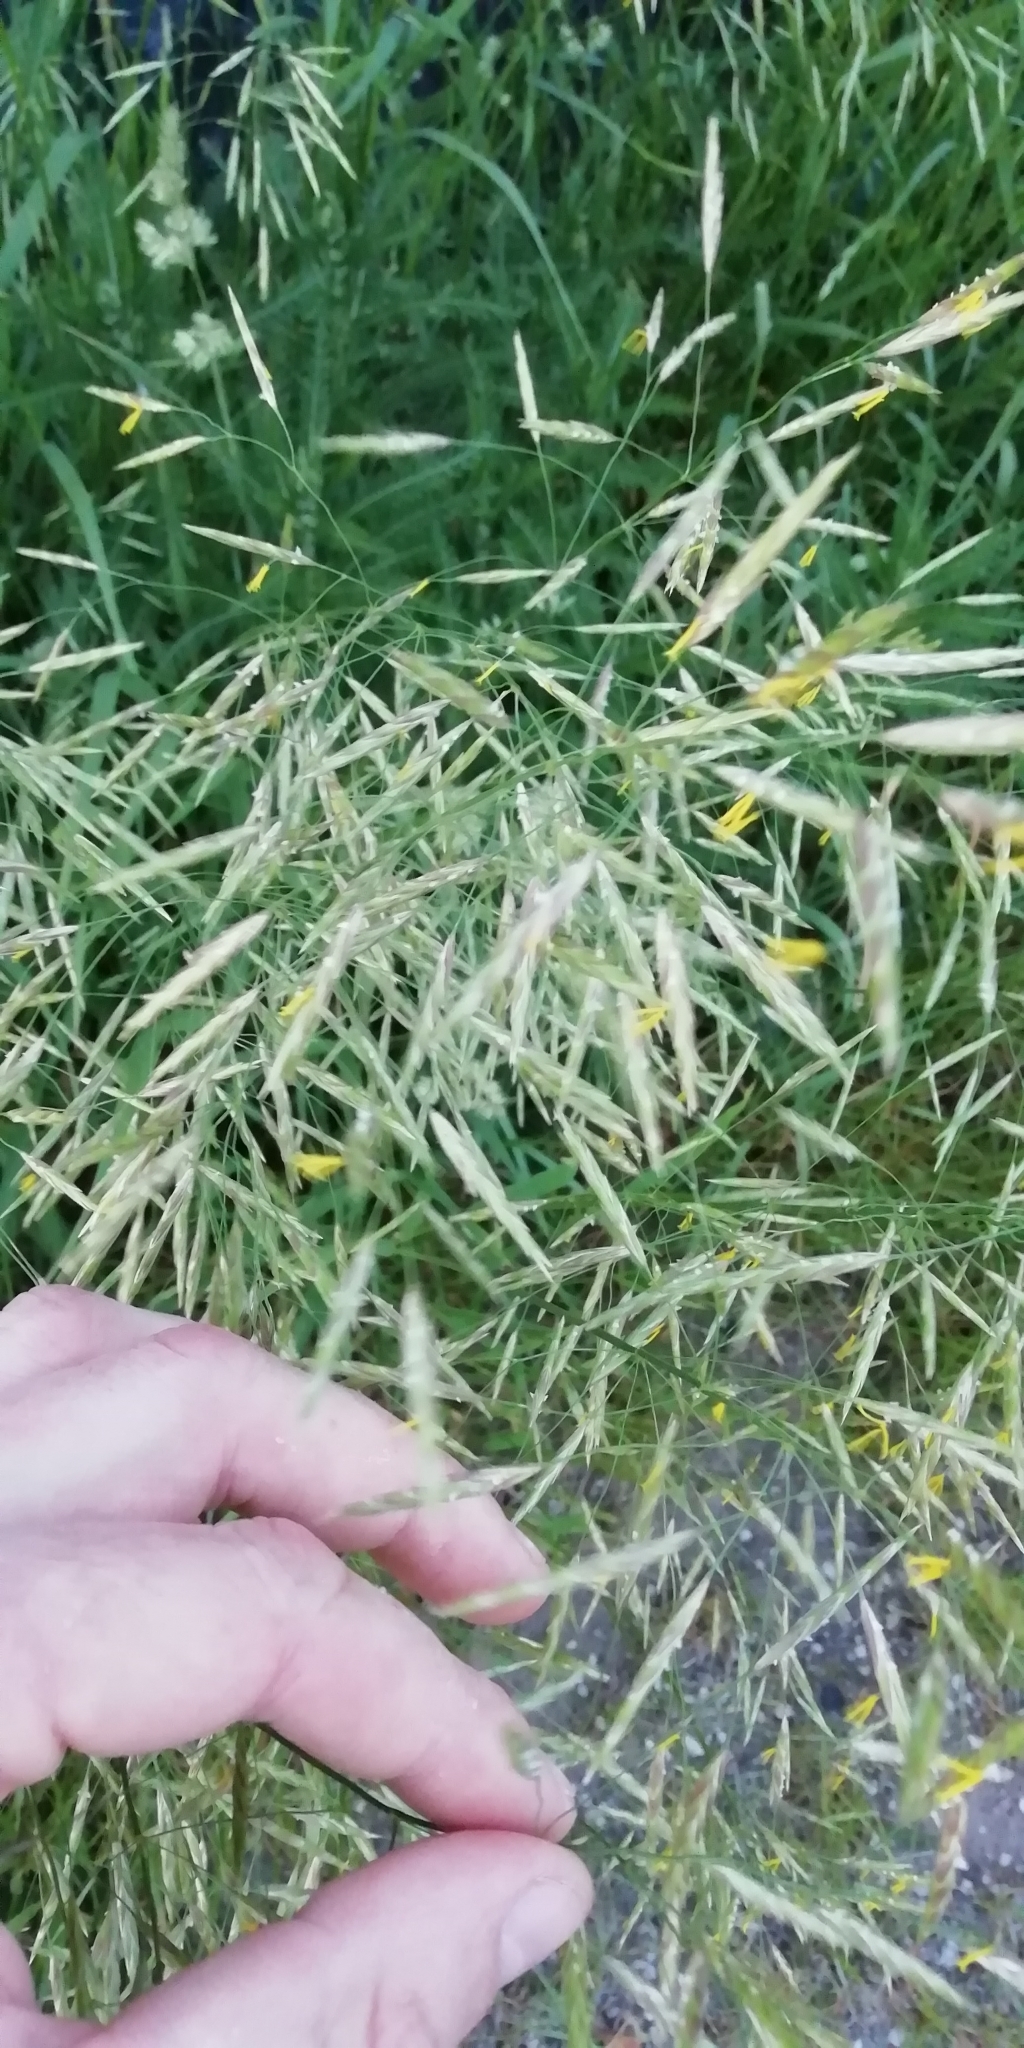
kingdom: Plantae
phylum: Tracheophyta
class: Liliopsida
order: Poales
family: Poaceae
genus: Bromus
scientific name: Bromus inermis
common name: Smooth brome
